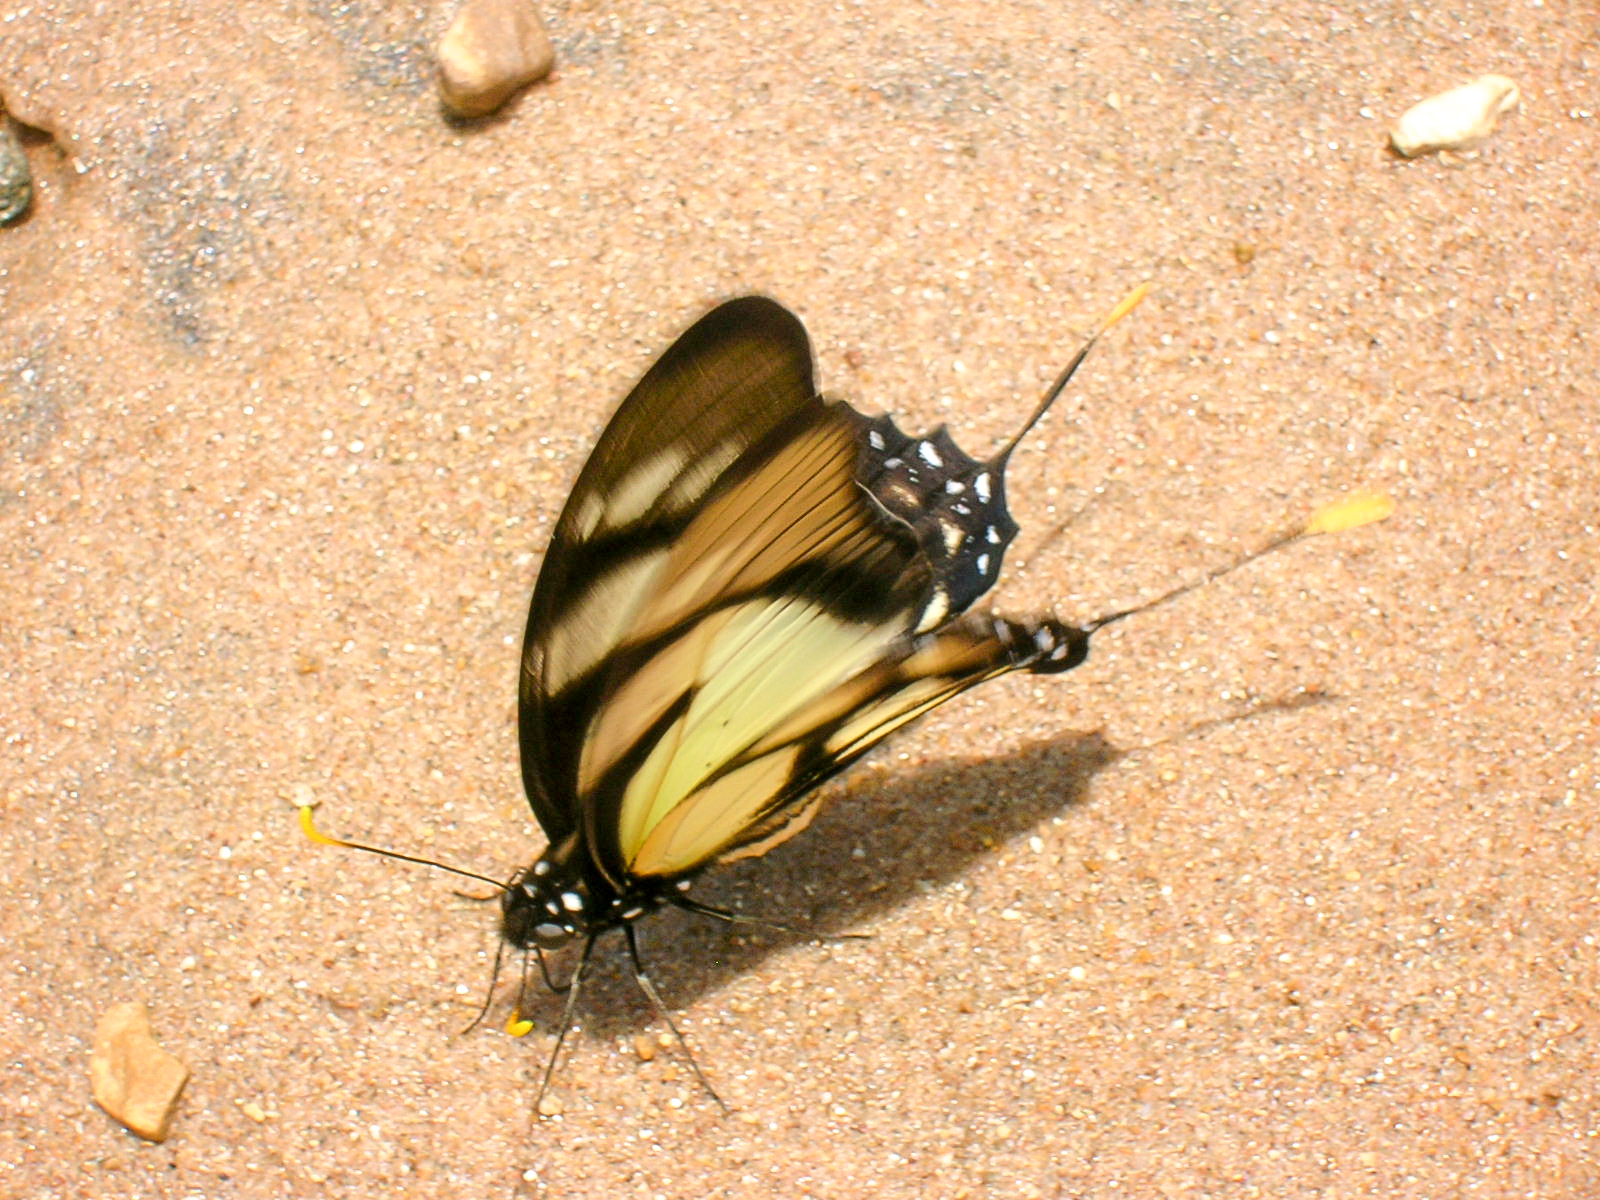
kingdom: Animalia
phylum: Arthropoda
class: Insecta
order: Lepidoptera
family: Papilionidae
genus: Eurytides
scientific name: Eurytides dolicaon
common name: Dolicaon kite swallowtail
